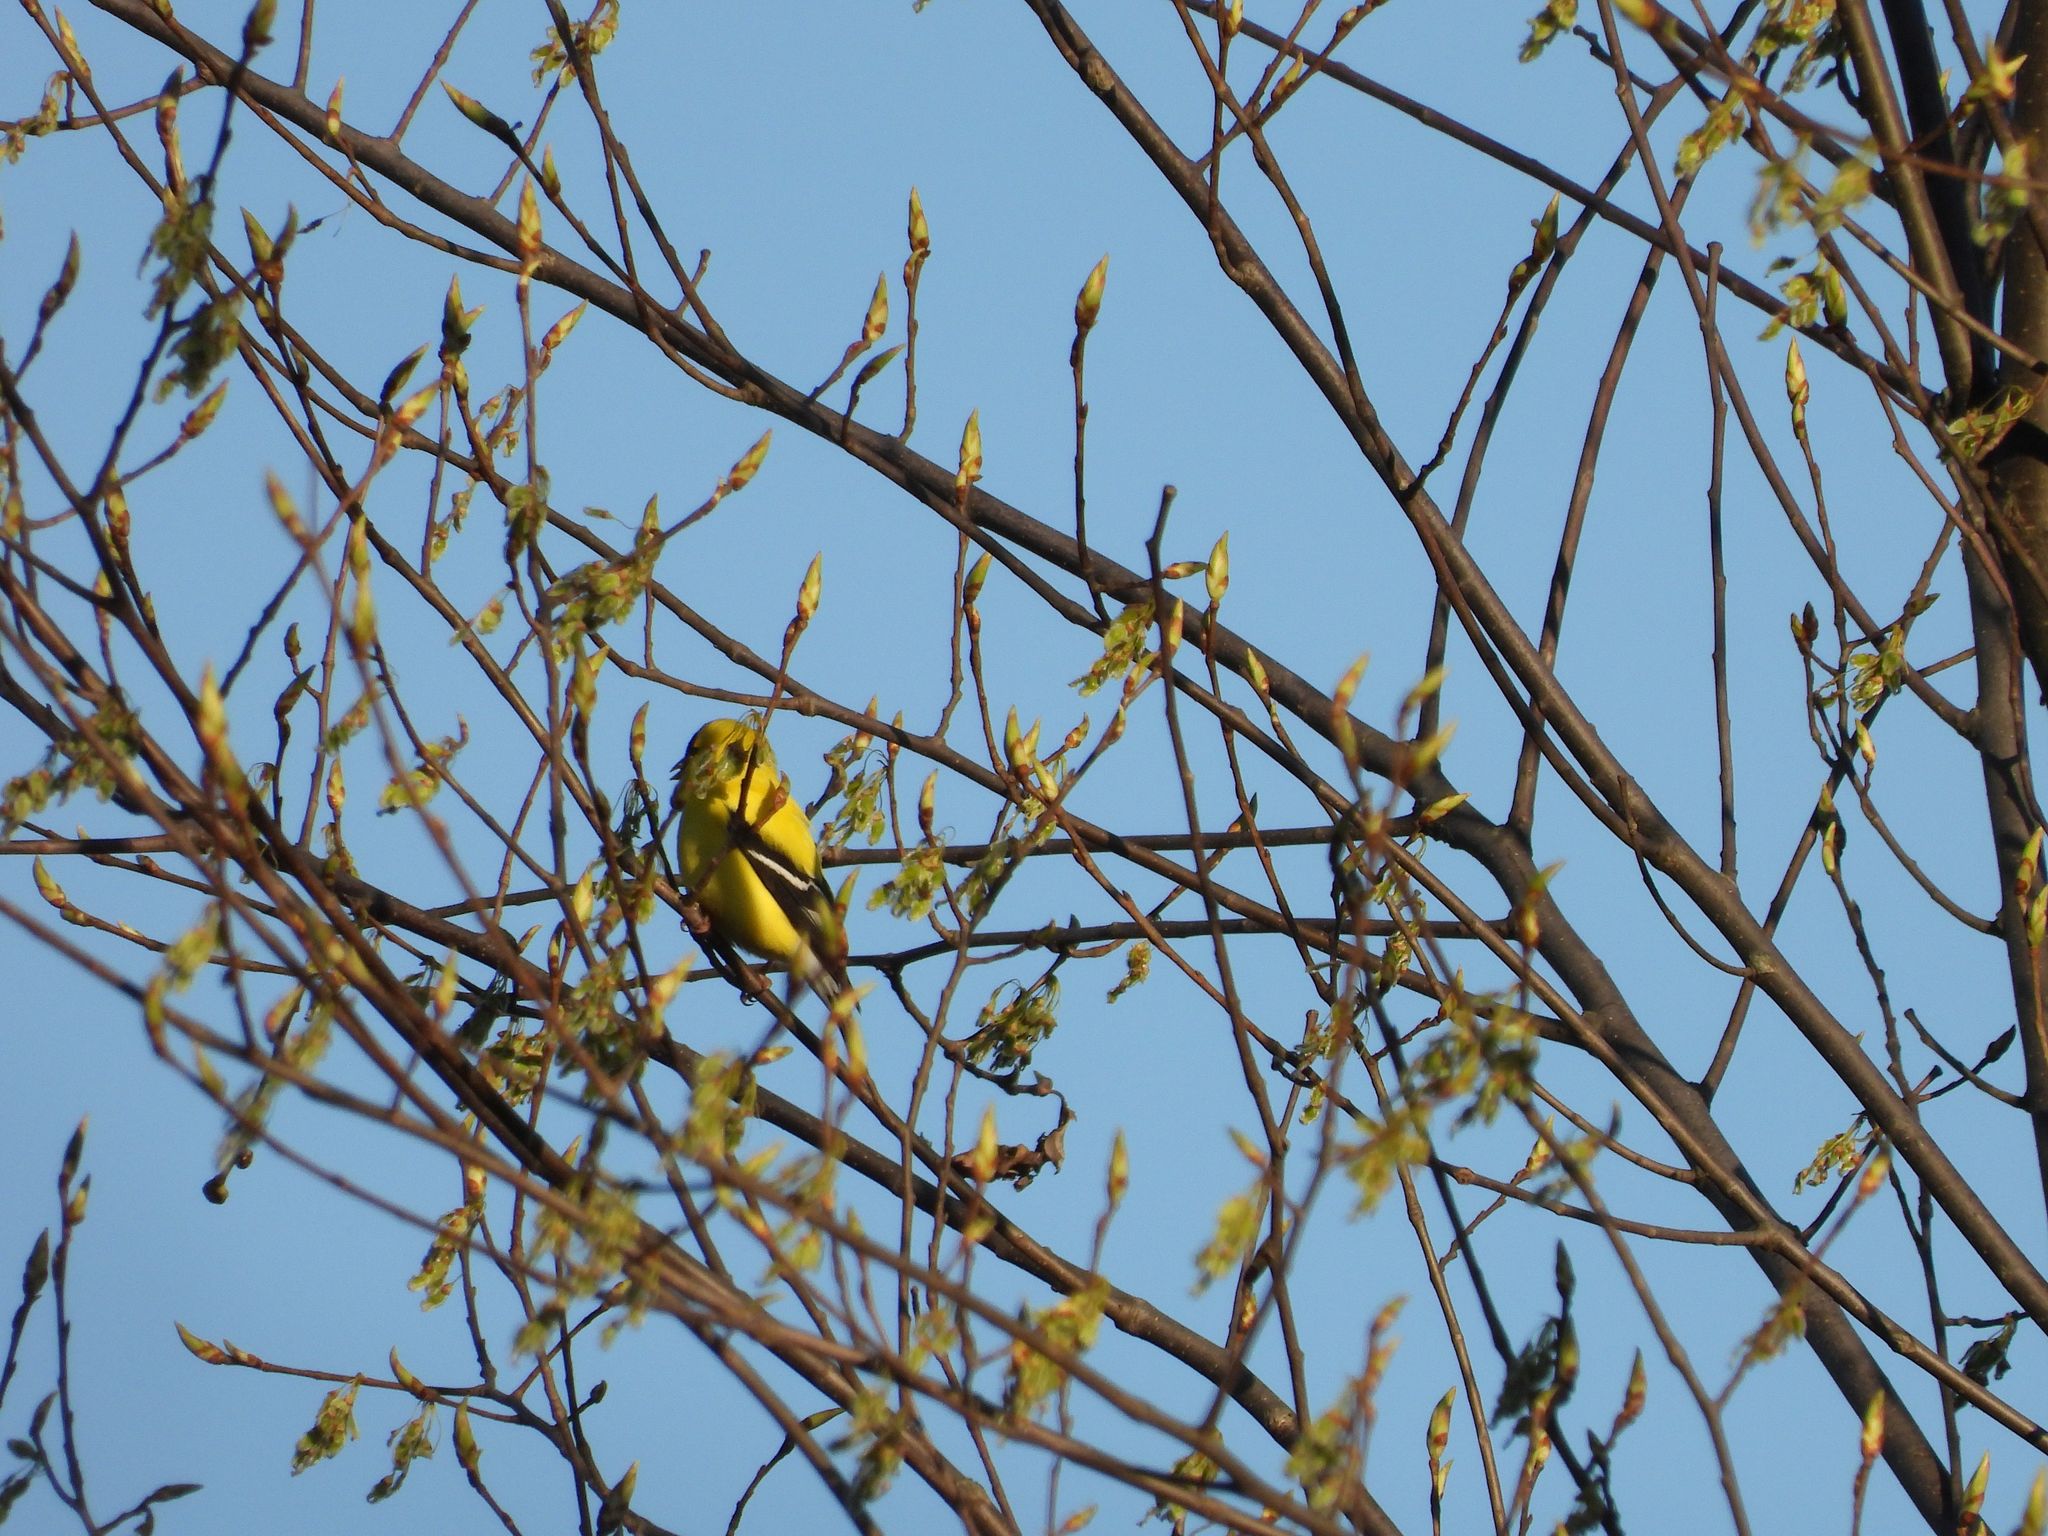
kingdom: Animalia
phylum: Chordata
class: Aves
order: Passeriformes
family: Fringillidae
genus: Spinus
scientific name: Spinus tristis
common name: American goldfinch
